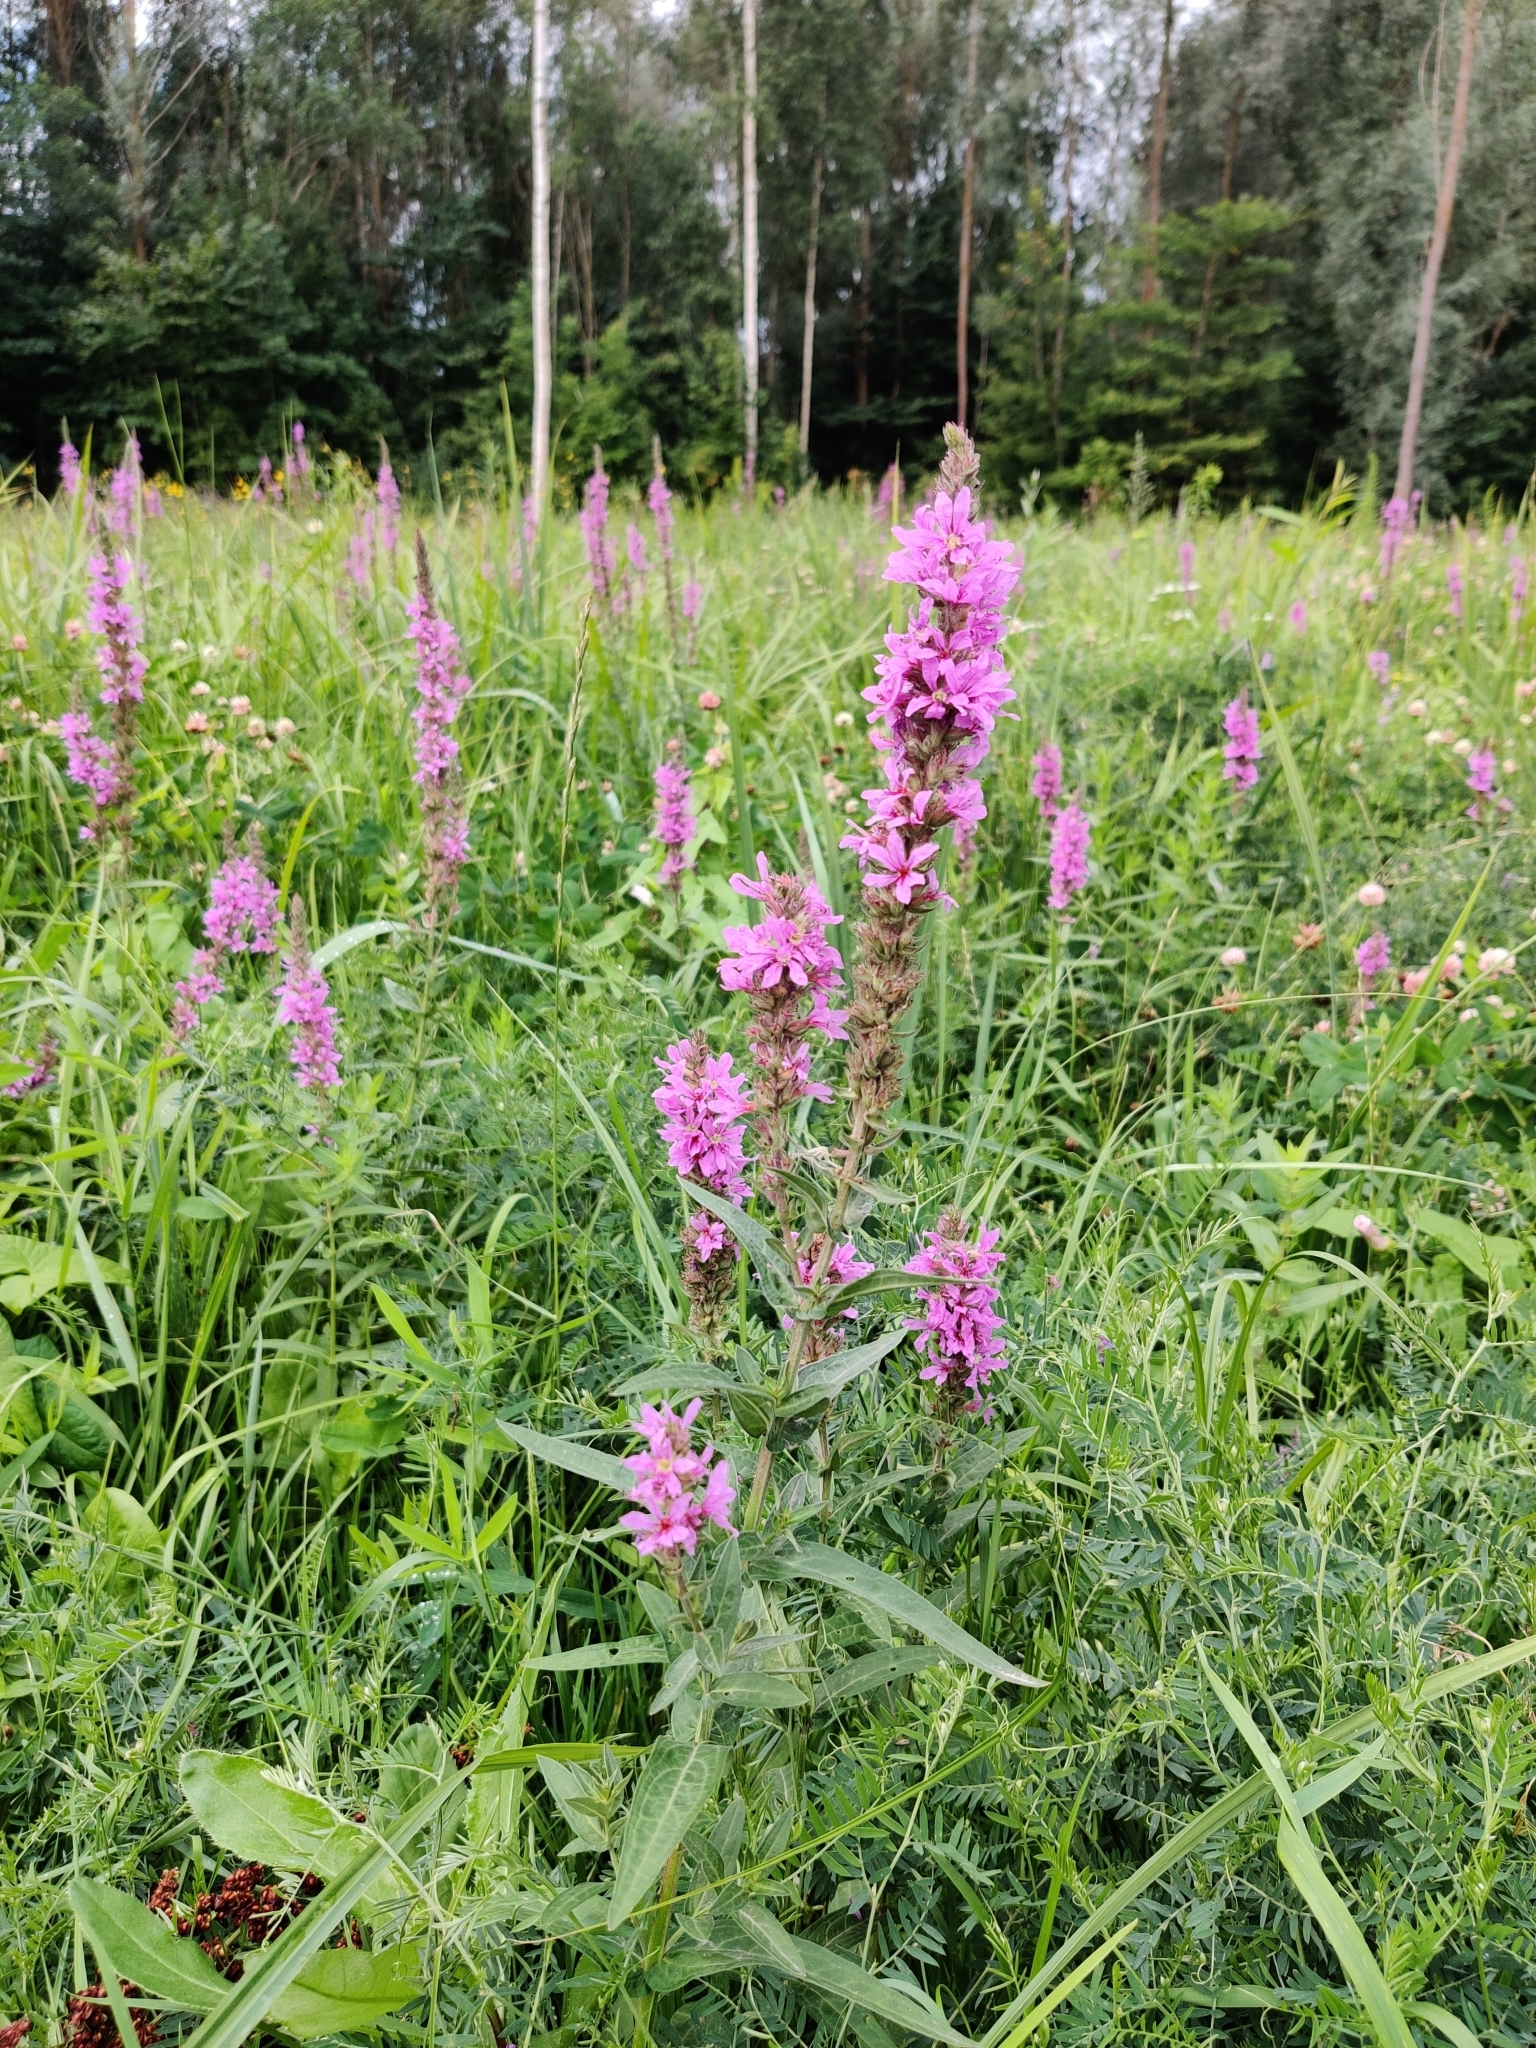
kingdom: Plantae
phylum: Tracheophyta
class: Magnoliopsida
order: Myrtales
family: Lythraceae
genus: Lythrum
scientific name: Lythrum salicaria
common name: Purple loosestrife
